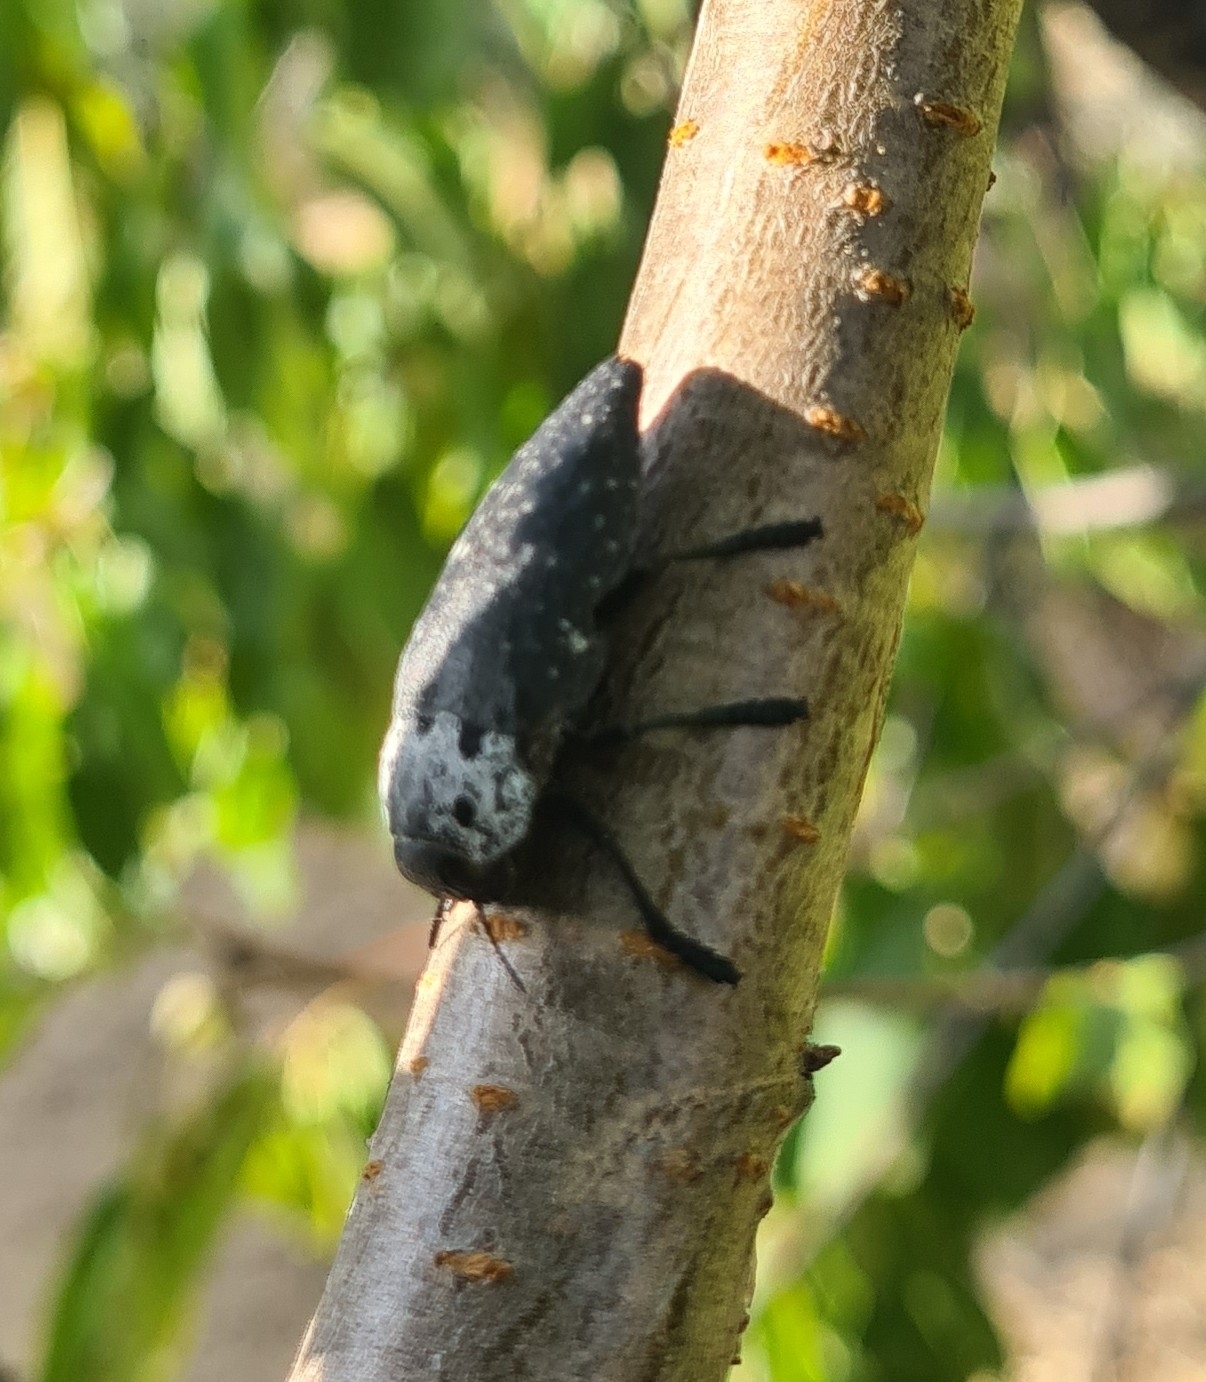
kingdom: Animalia
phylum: Arthropoda
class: Insecta
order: Coleoptera
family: Buprestidae
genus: Capnodis
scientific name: Capnodis tenebrionis
